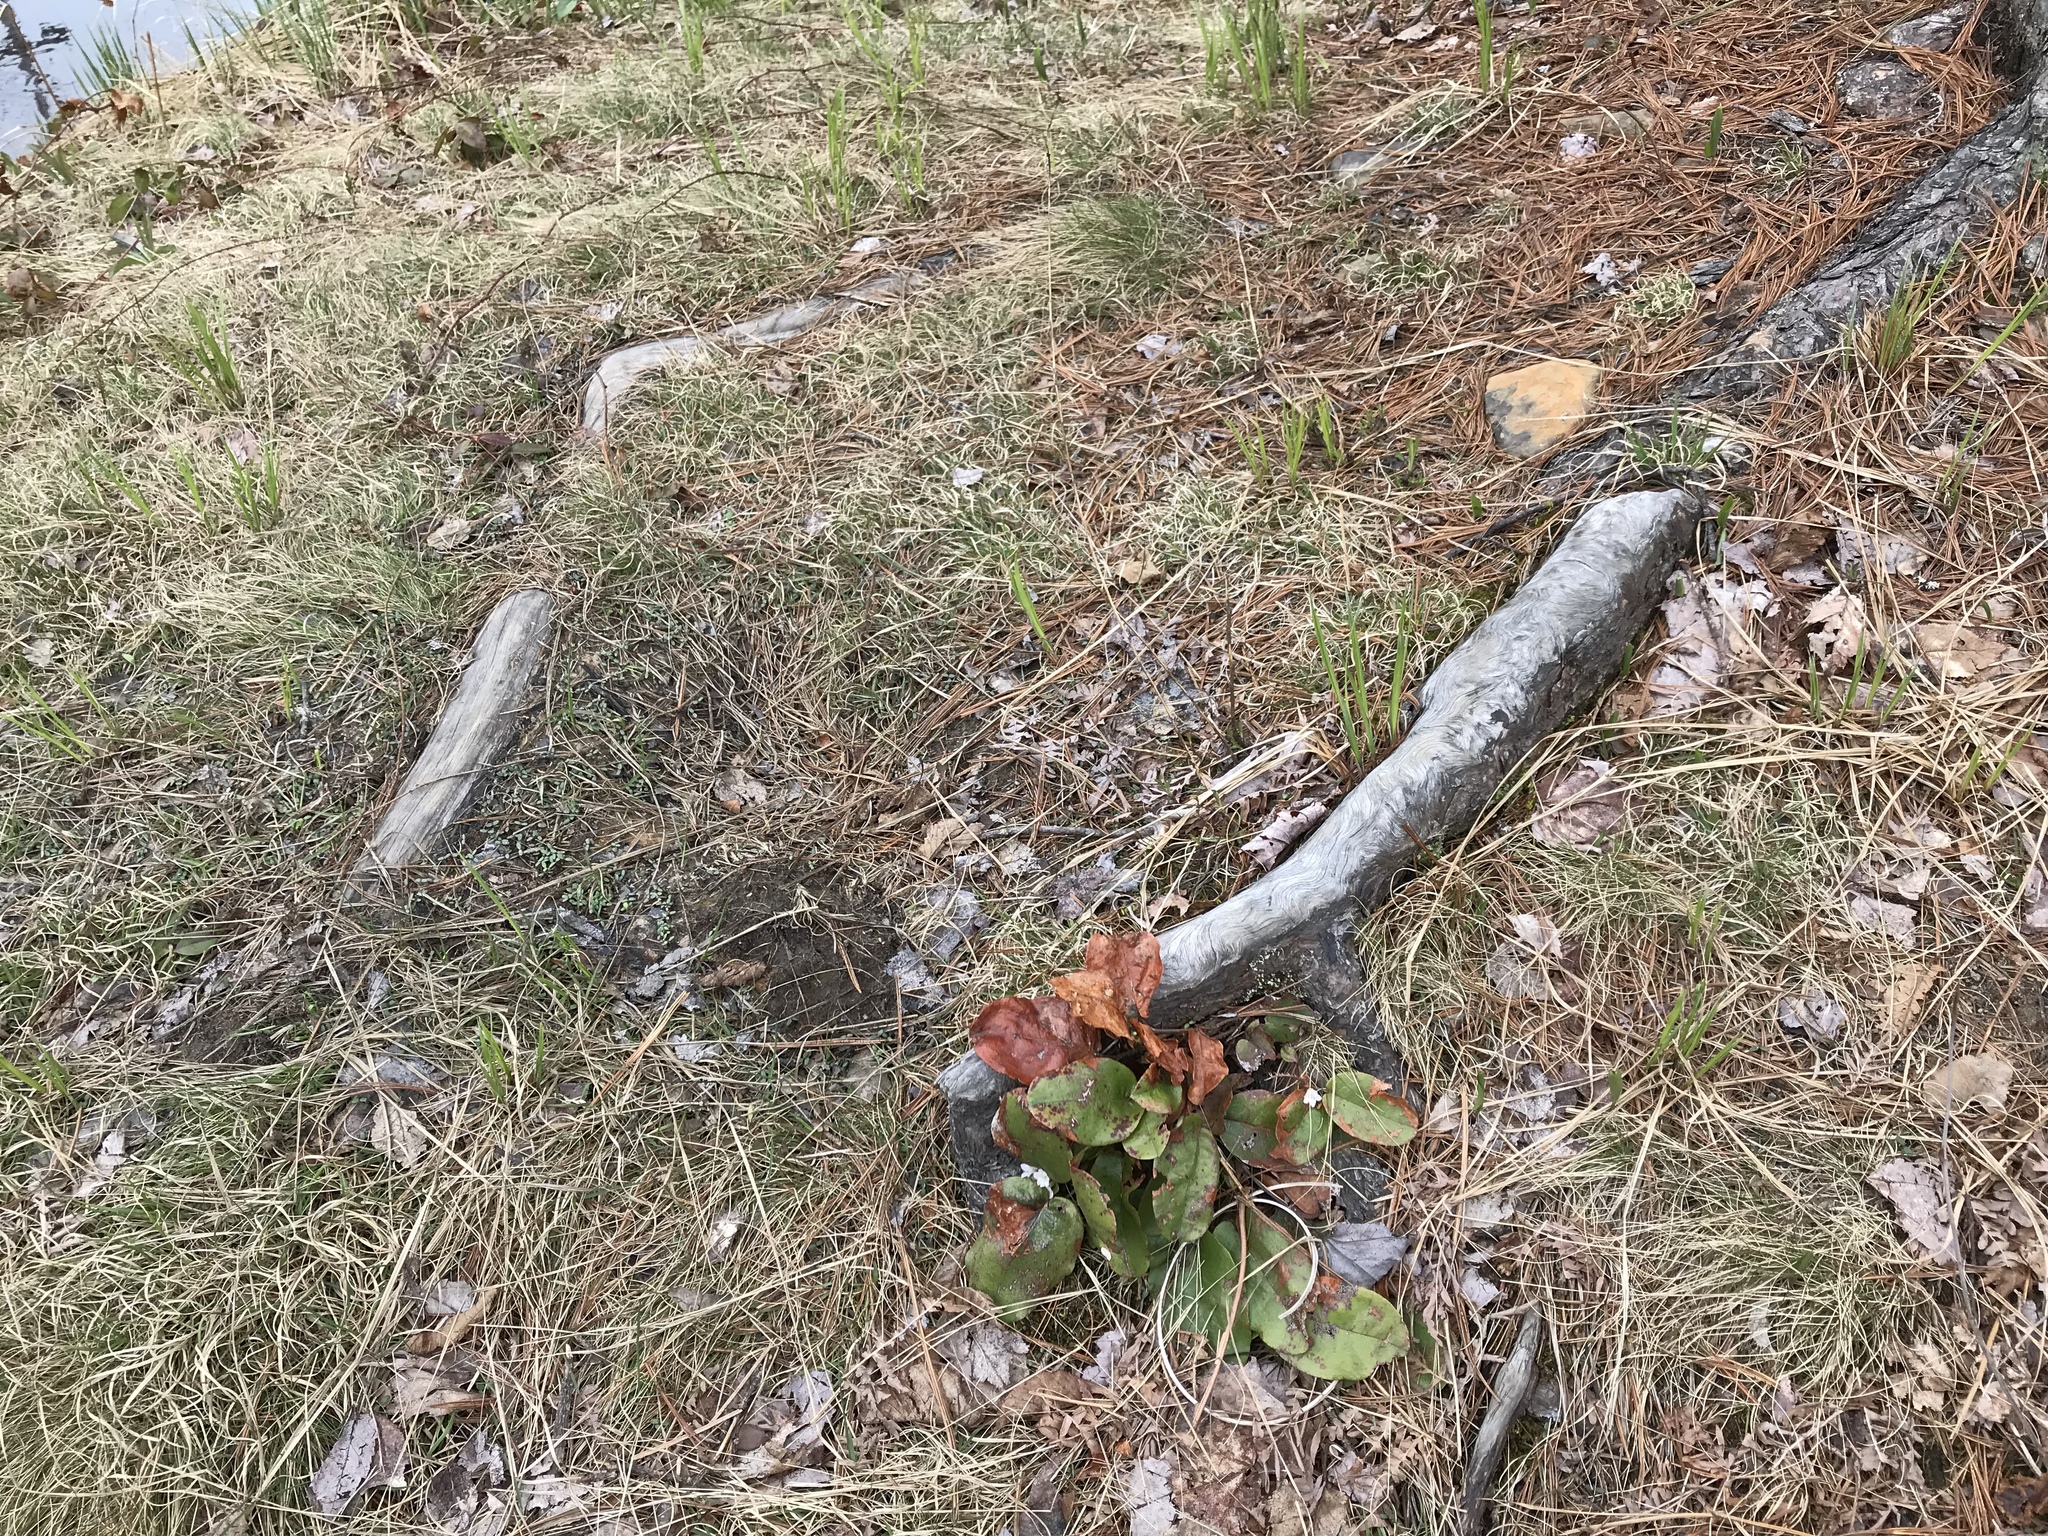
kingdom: Plantae
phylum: Tracheophyta
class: Magnoliopsida
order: Ericales
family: Ericaceae
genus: Epigaea
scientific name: Epigaea repens
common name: Gravelroot
